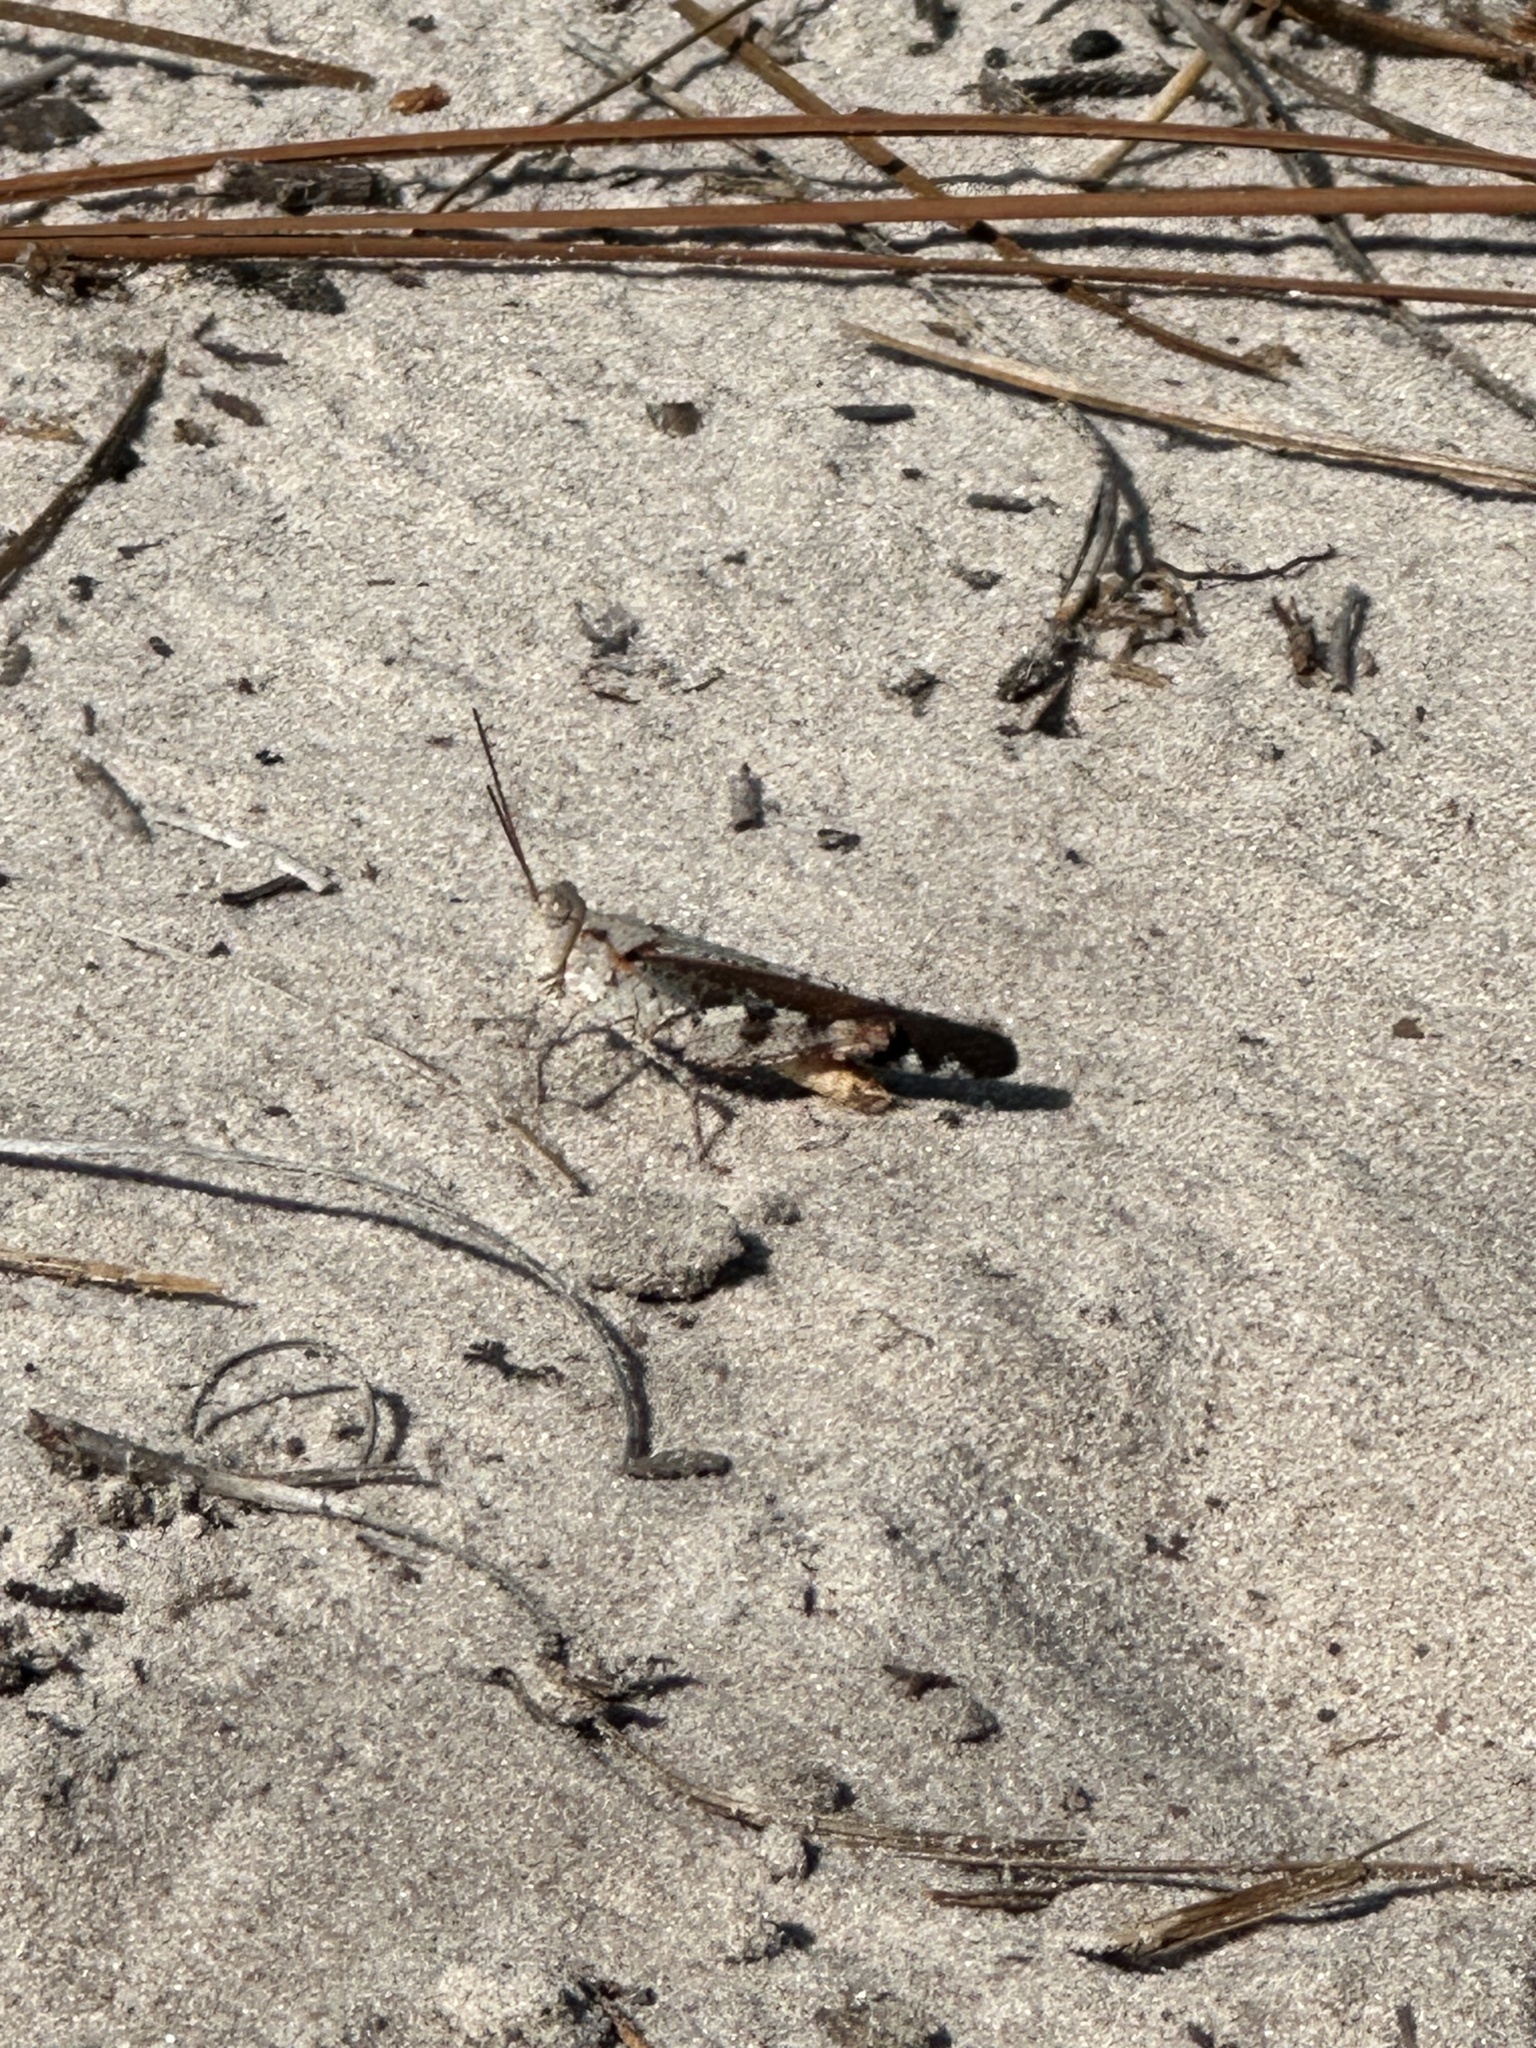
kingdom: Animalia
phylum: Arthropoda
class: Insecta
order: Orthoptera
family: Acrididae
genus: Spharagemon
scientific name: Spharagemon marmoratum
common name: Marbled grasshopper
